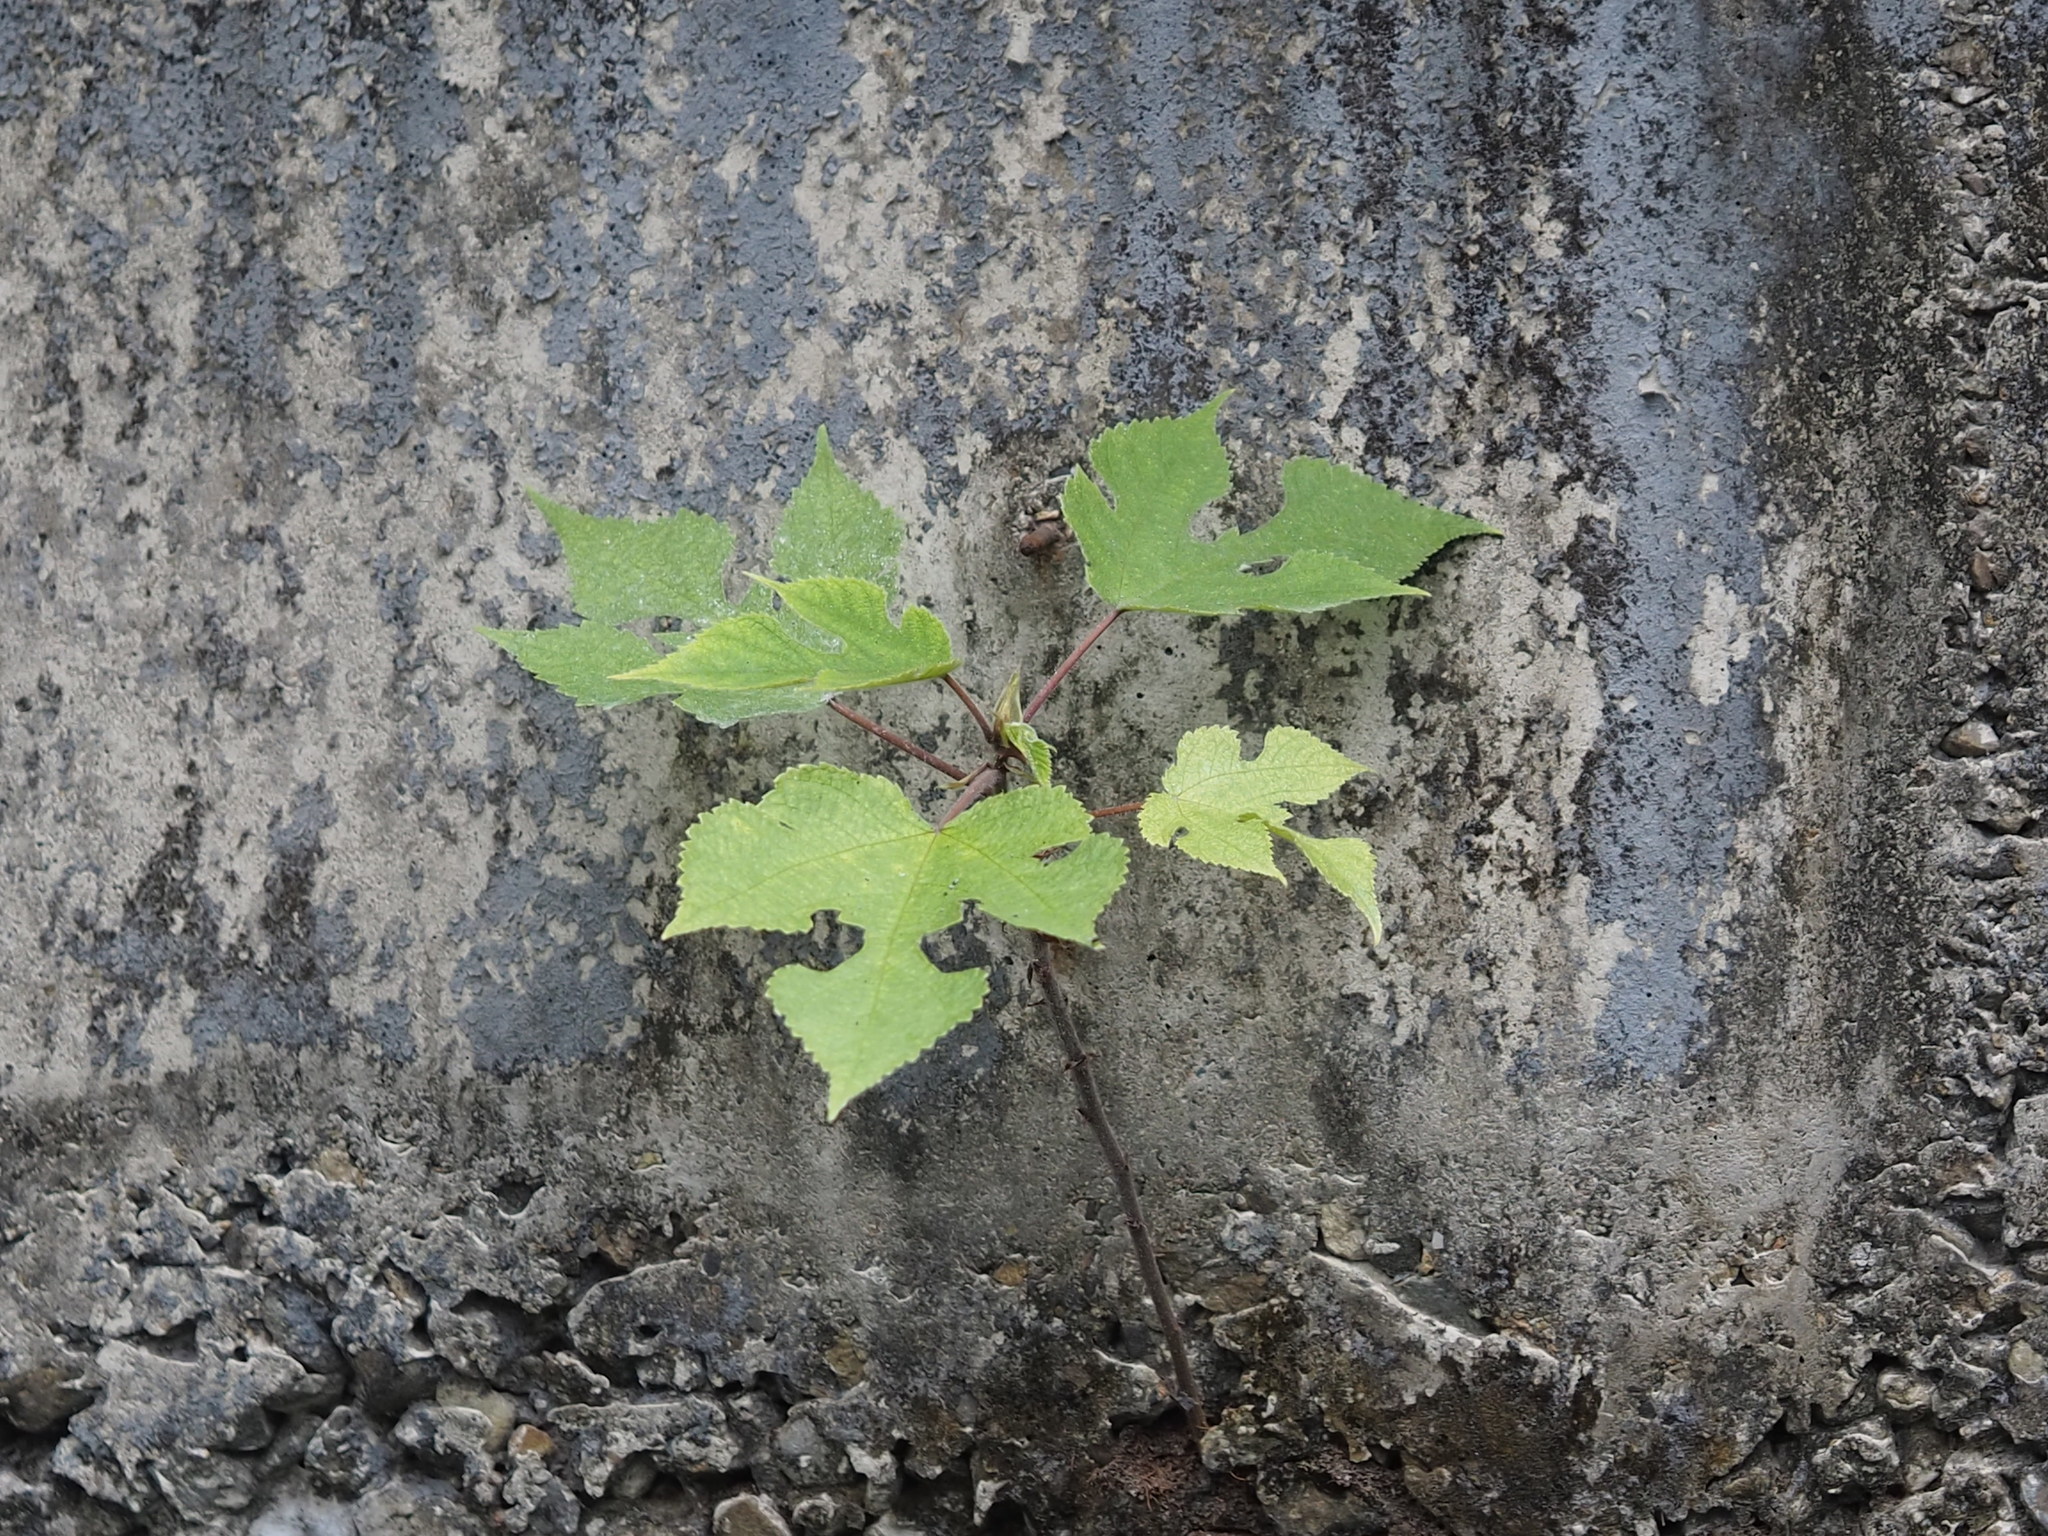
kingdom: Plantae
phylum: Tracheophyta
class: Magnoliopsida
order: Rosales
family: Moraceae
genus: Broussonetia
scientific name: Broussonetia papyrifera
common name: Paper mulberry
